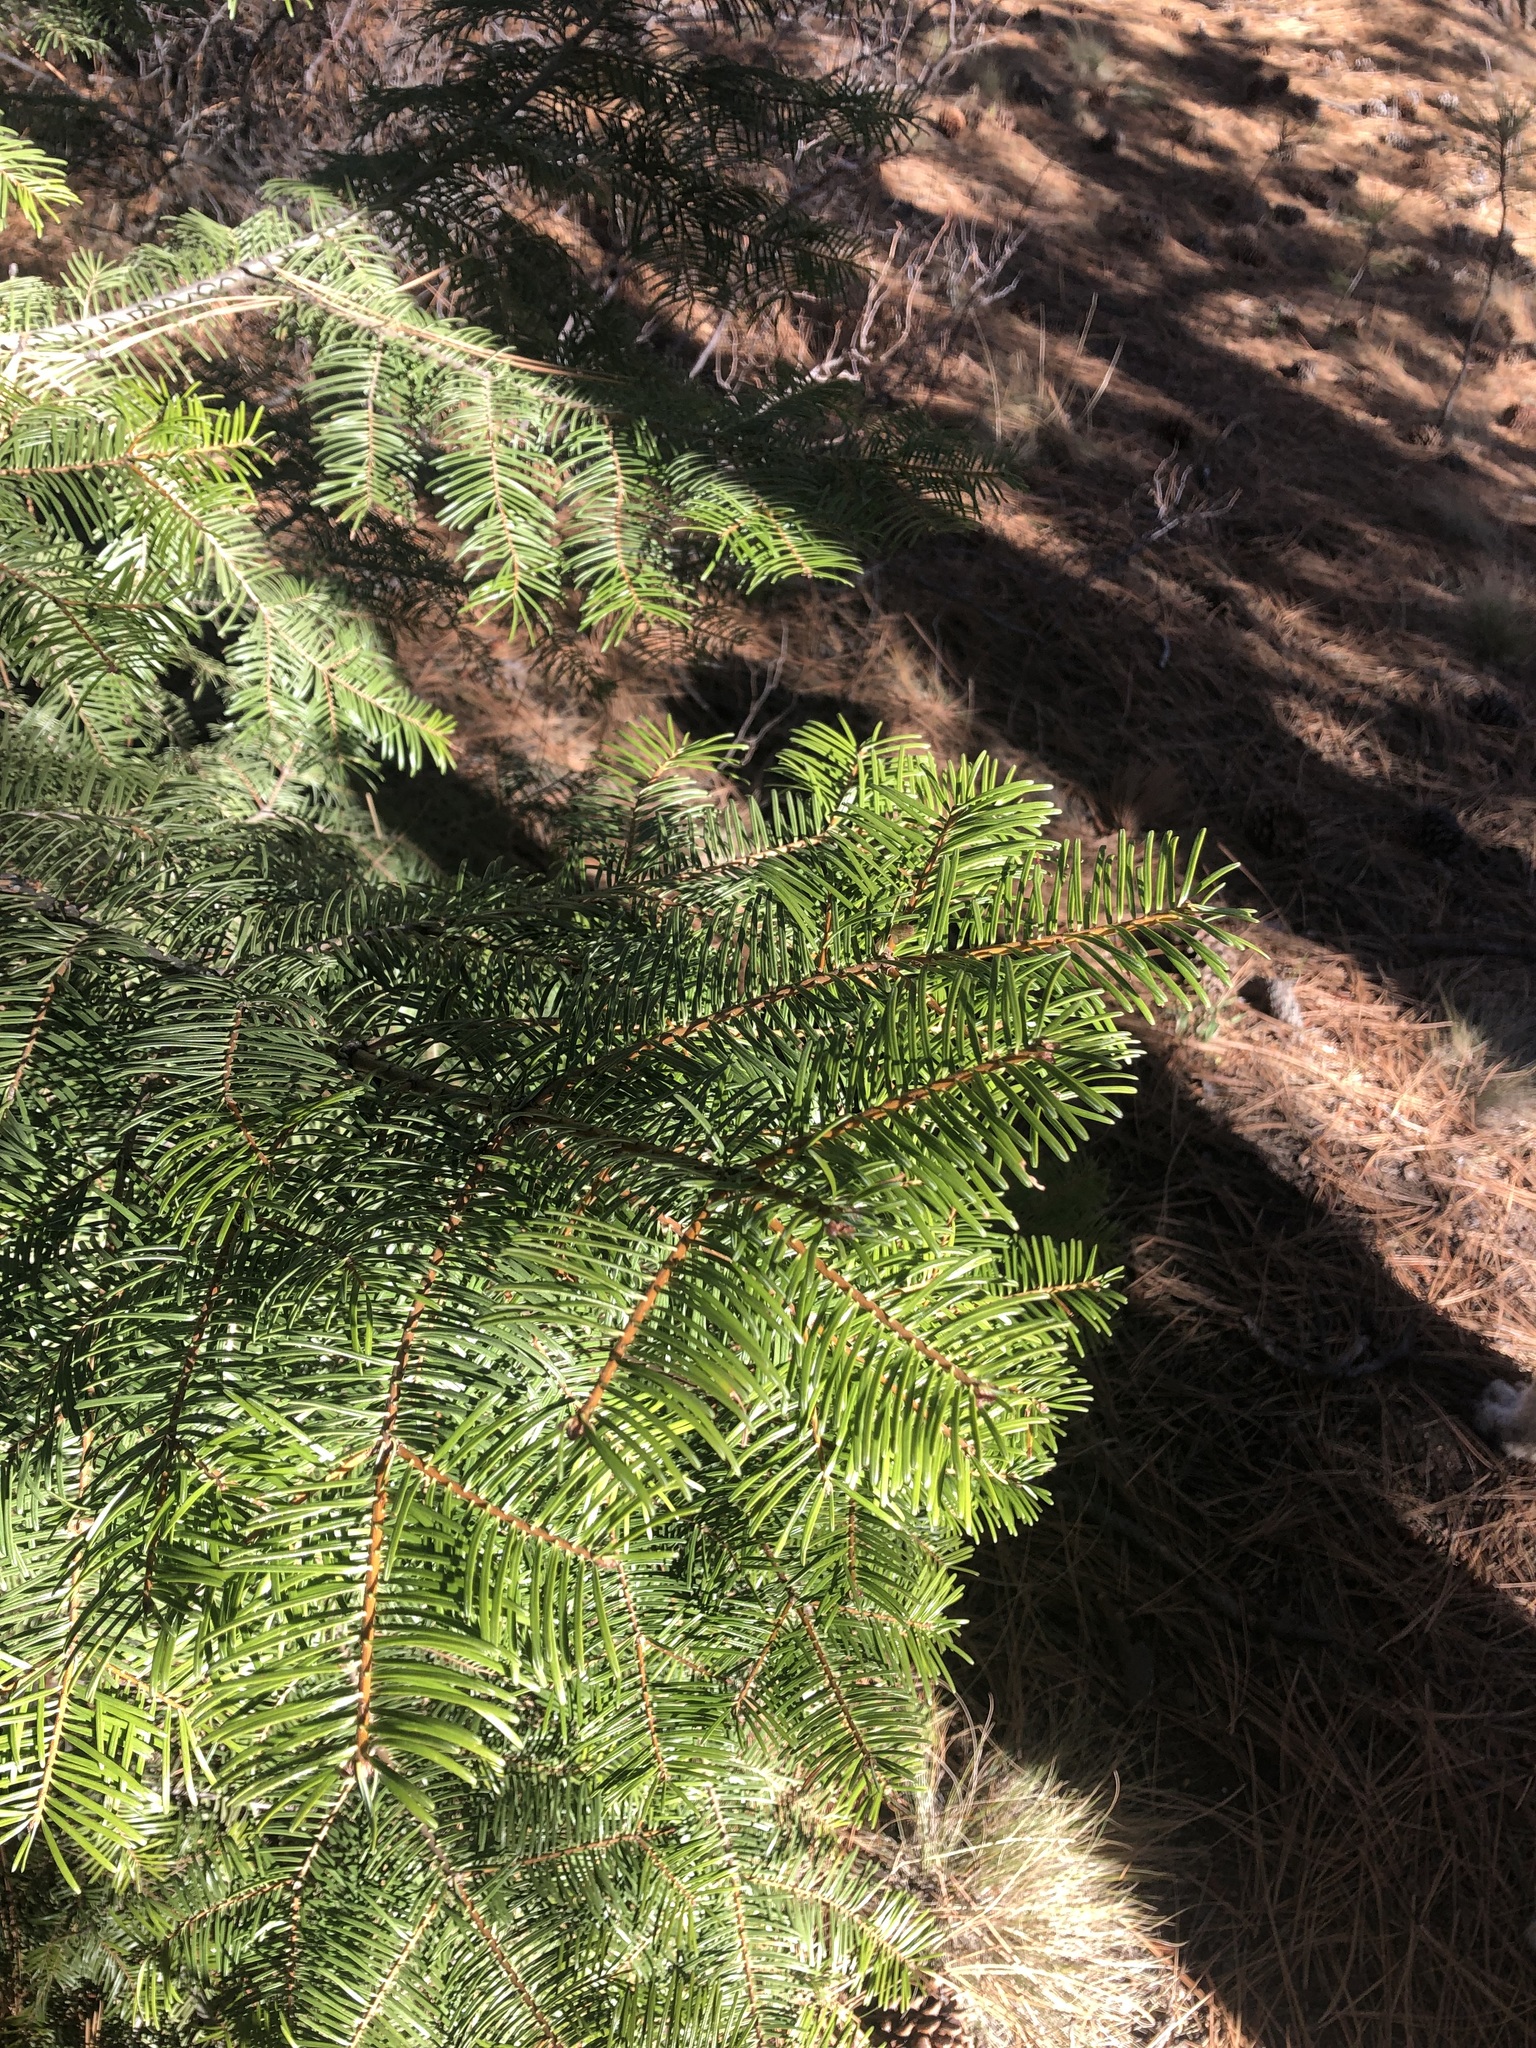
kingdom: Plantae
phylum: Tracheophyta
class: Pinopsida
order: Pinales
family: Pinaceae
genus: Abies
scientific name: Abies concolor
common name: Colorado fir
